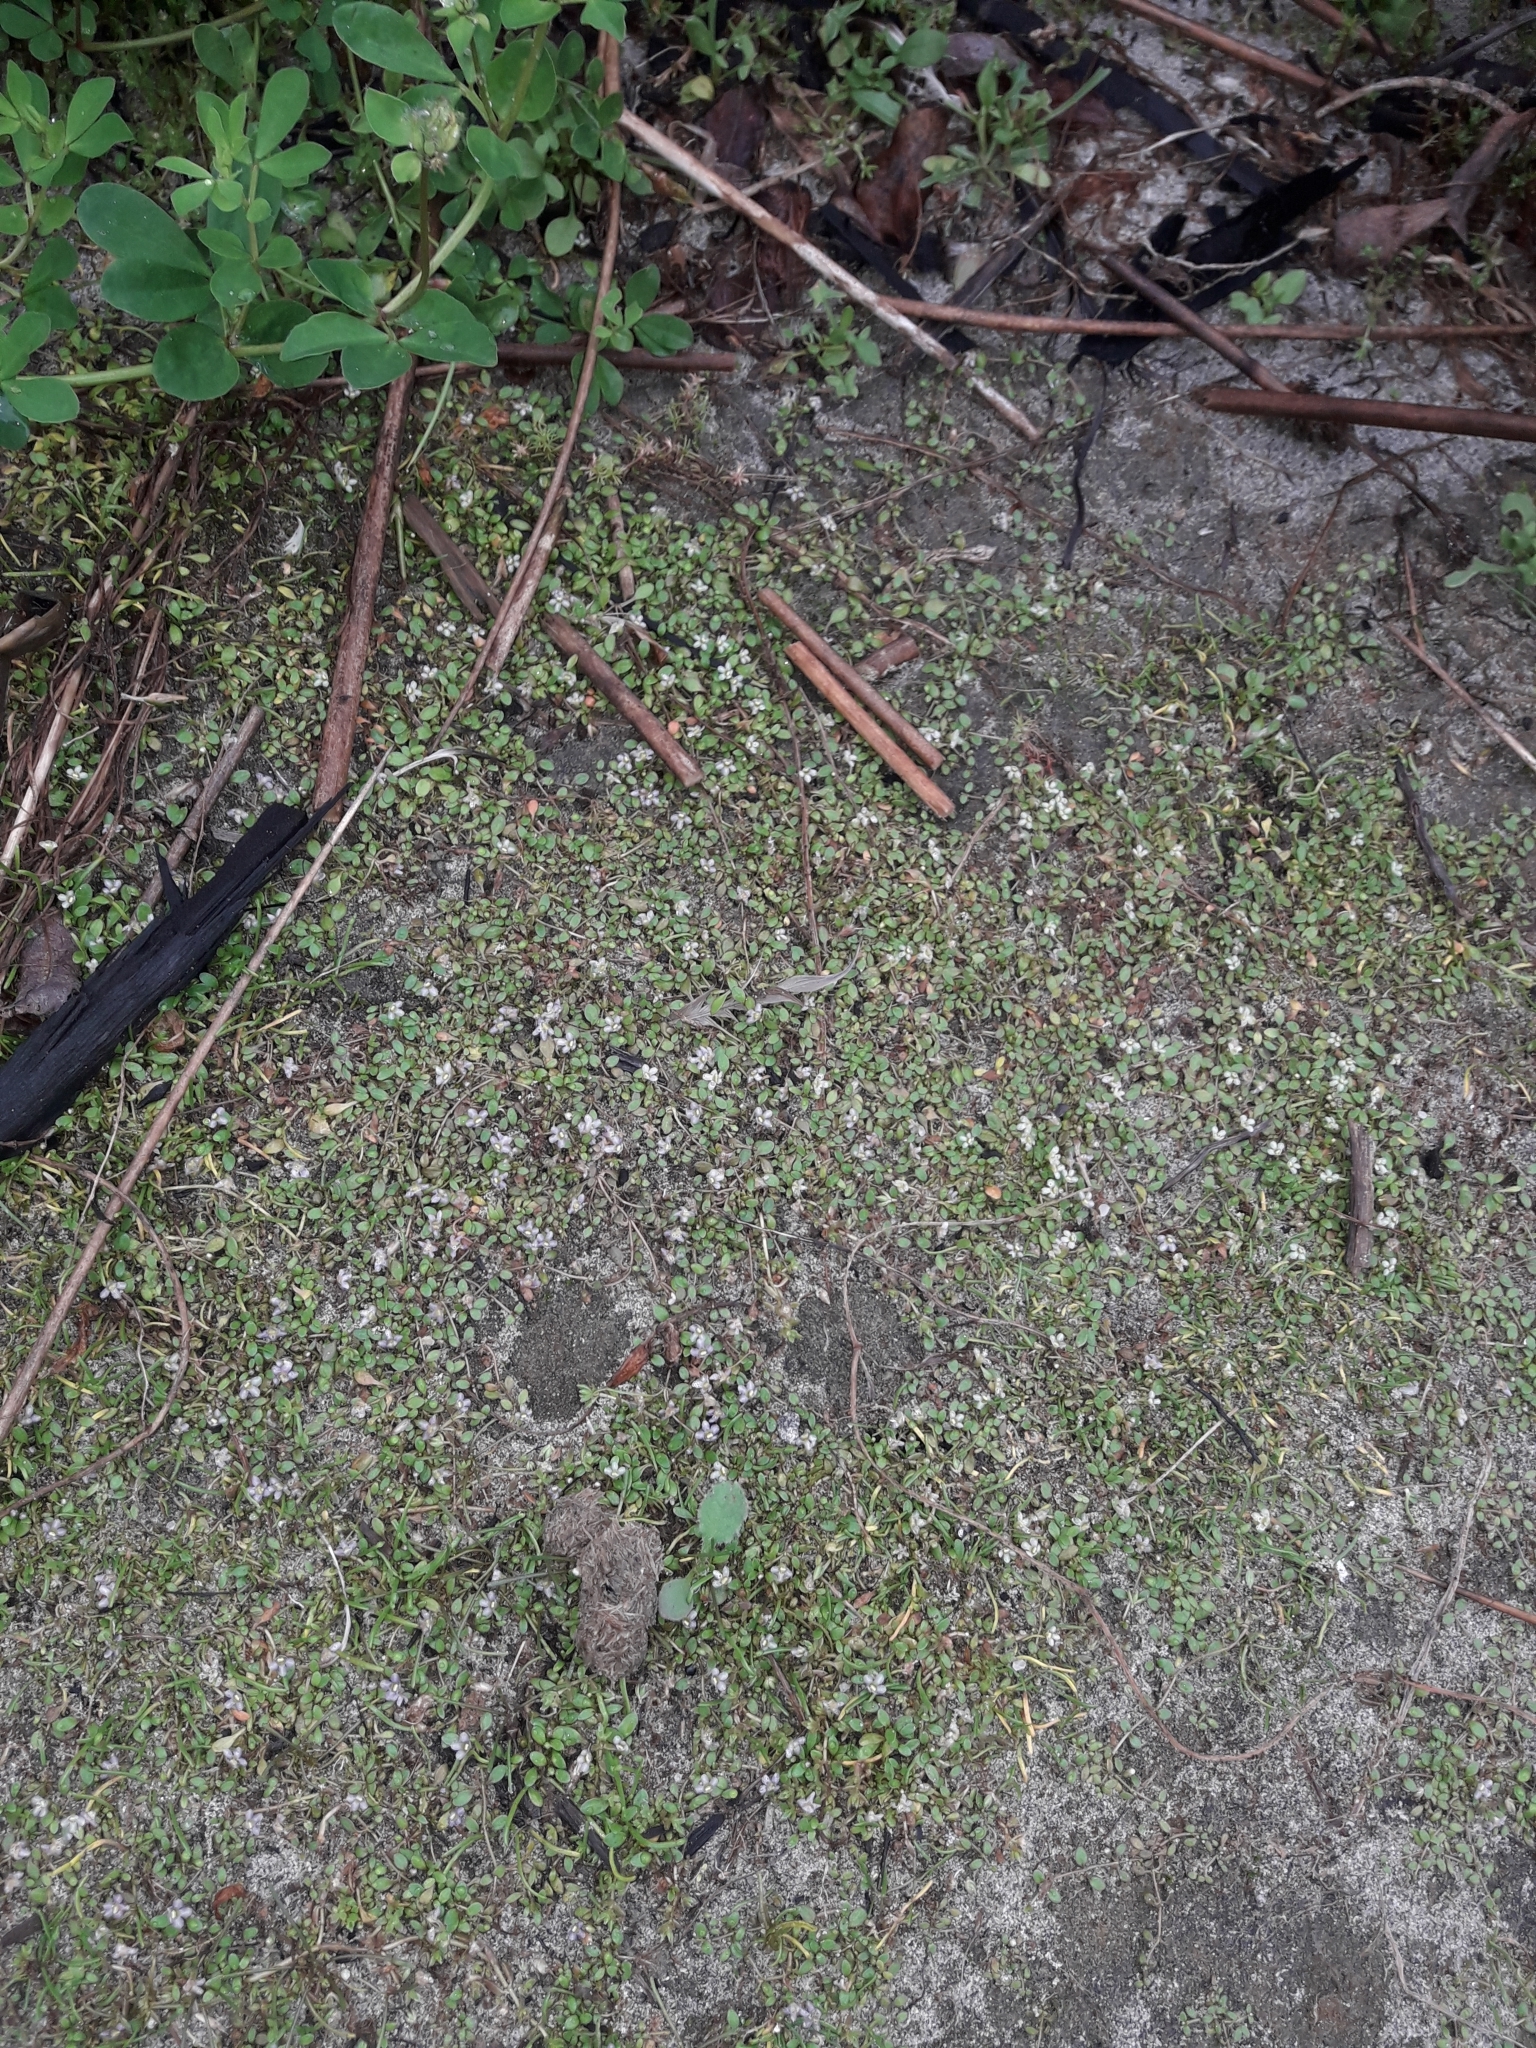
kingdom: Plantae
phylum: Tracheophyta
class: Magnoliopsida
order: Lamiales
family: Phrymaceae
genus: Glossostigma
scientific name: Glossostigma elatinoides
